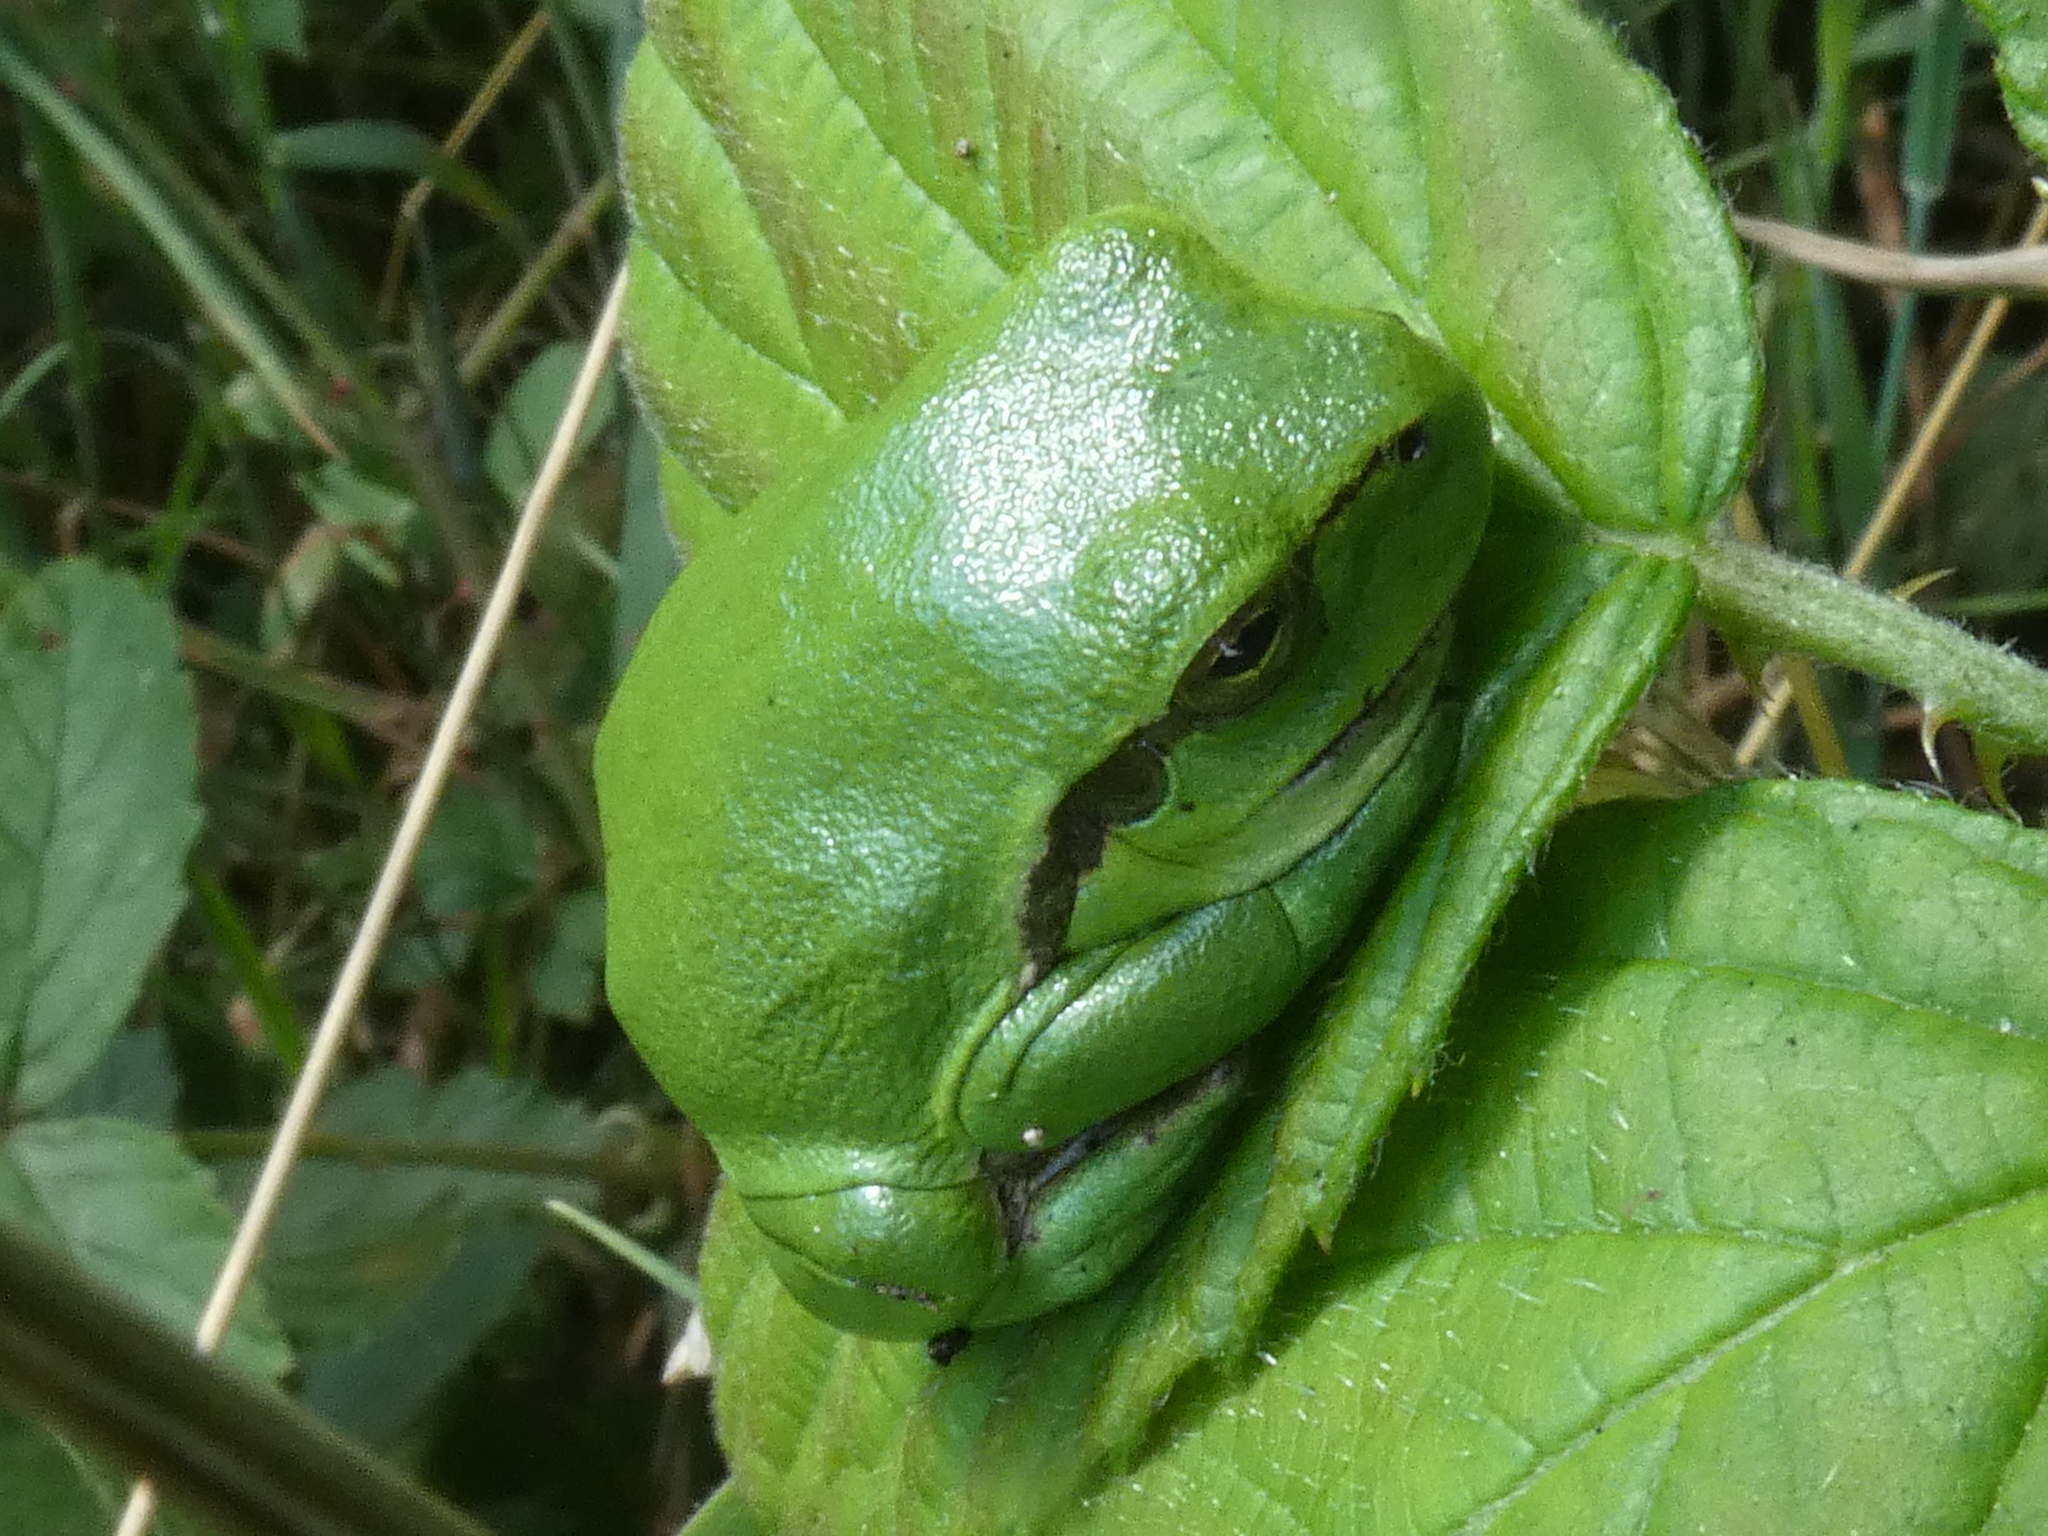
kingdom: Animalia
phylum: Chordata
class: Amphibia
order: Anura
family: Hylidae
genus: Hyla
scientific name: Hyla arborea
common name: Common tree frog
